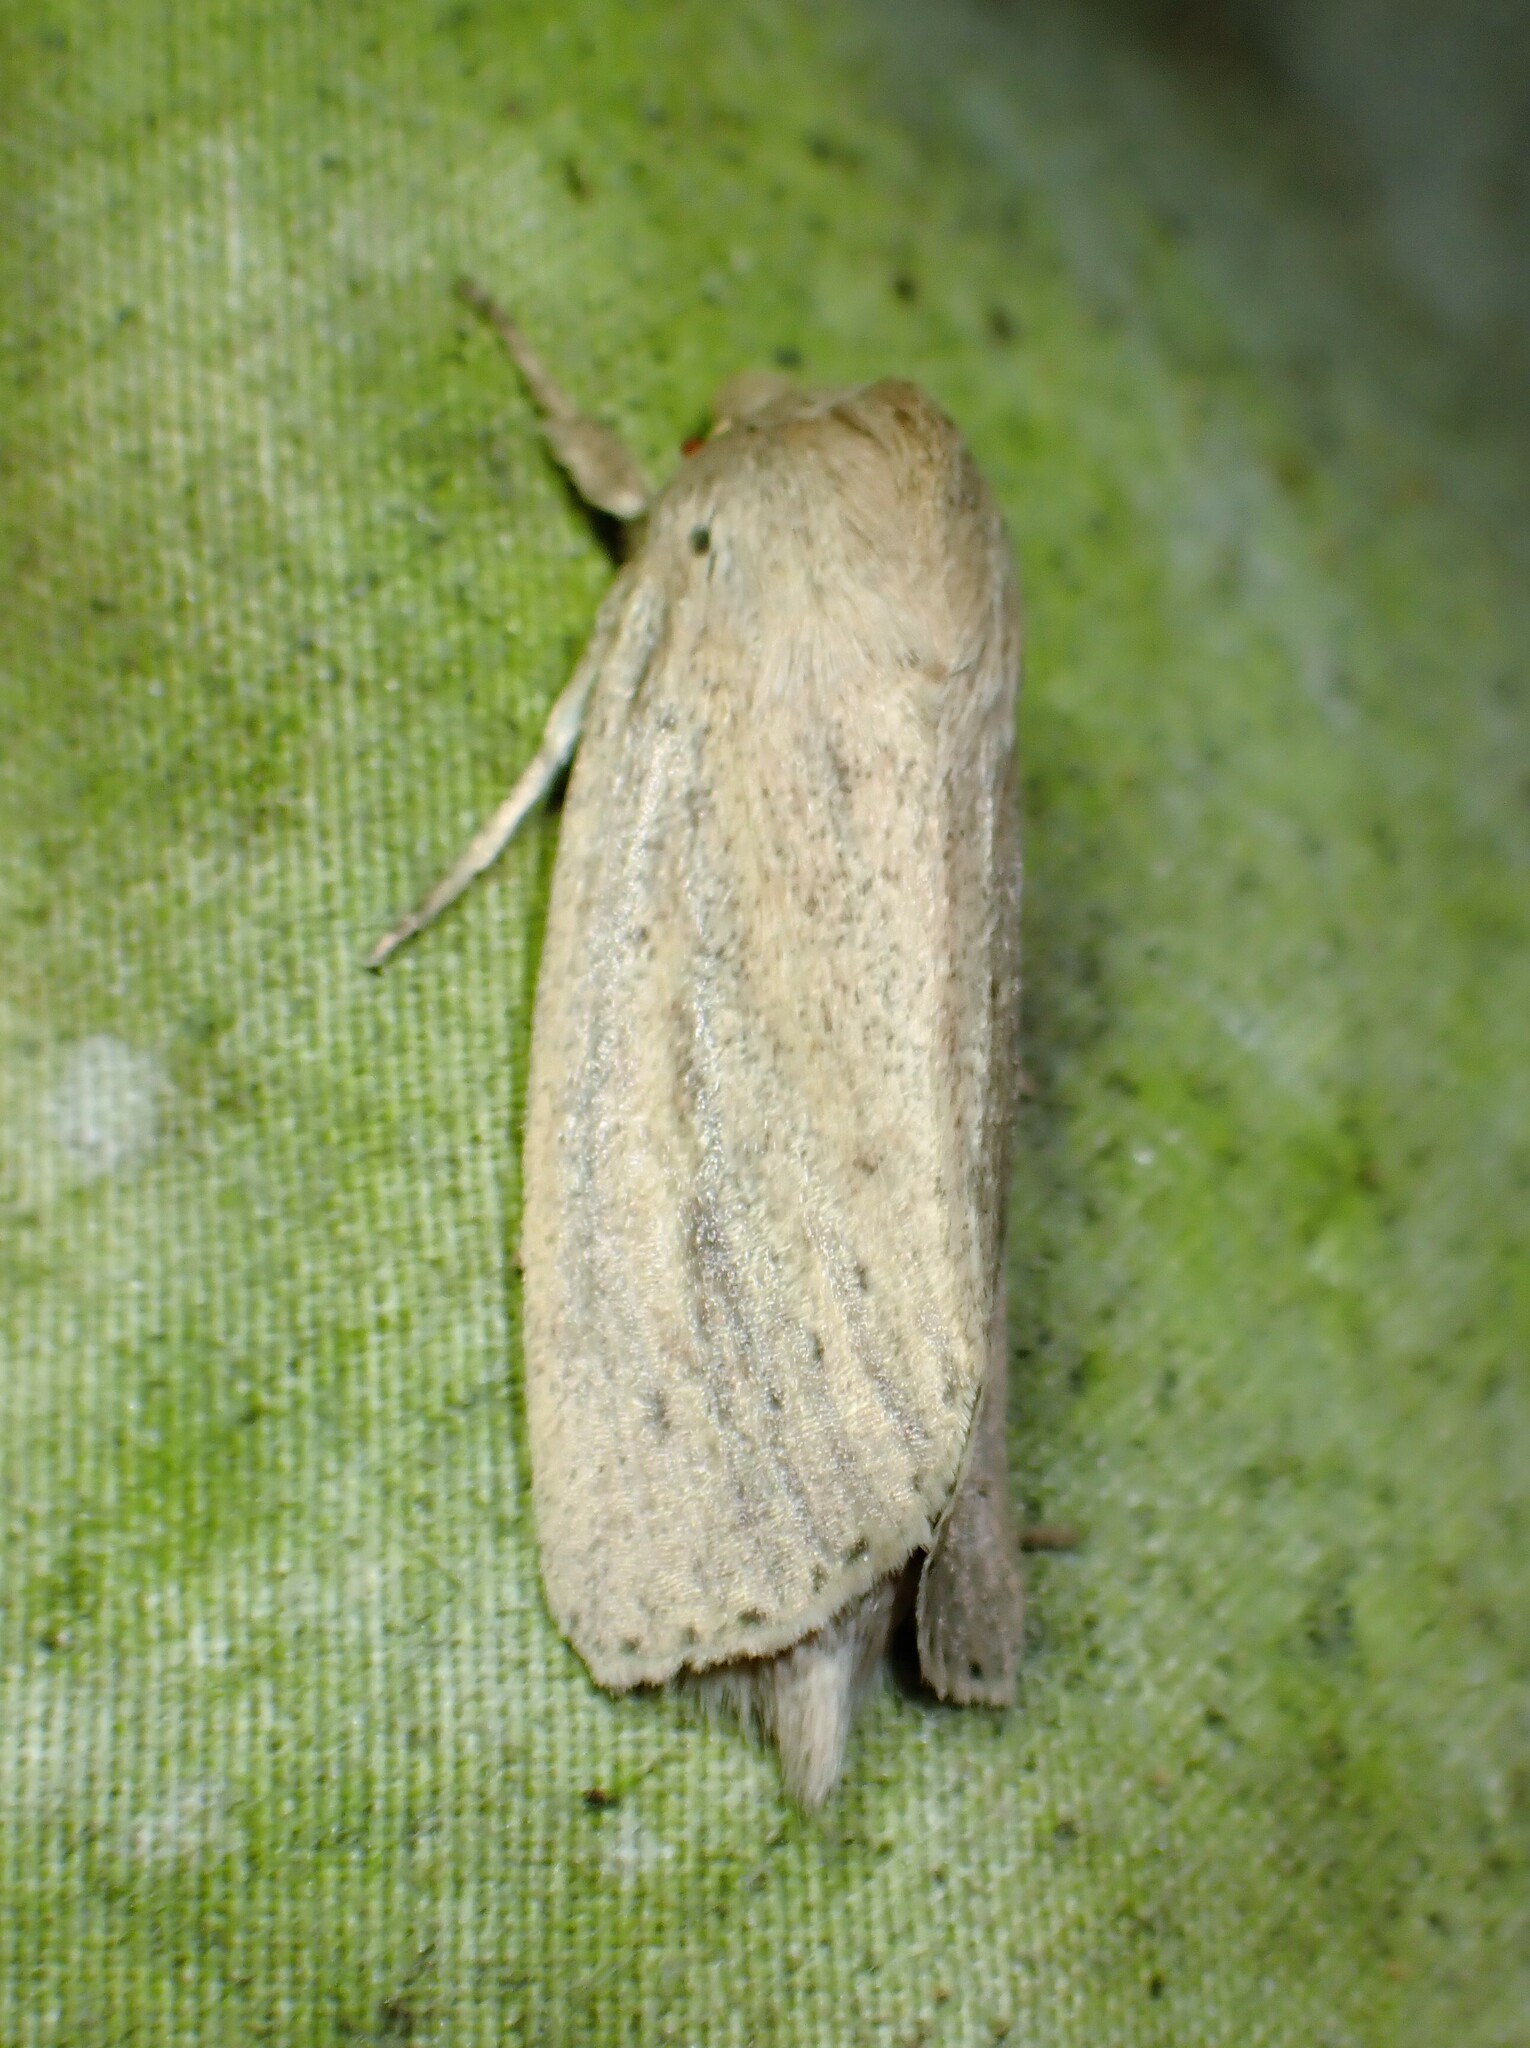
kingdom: Animalia
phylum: Arthropoda
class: Insecta
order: Lepidoptera
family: Noctuidae
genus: Globia
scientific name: Globia oblonga
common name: Oblong sedge borer moth
